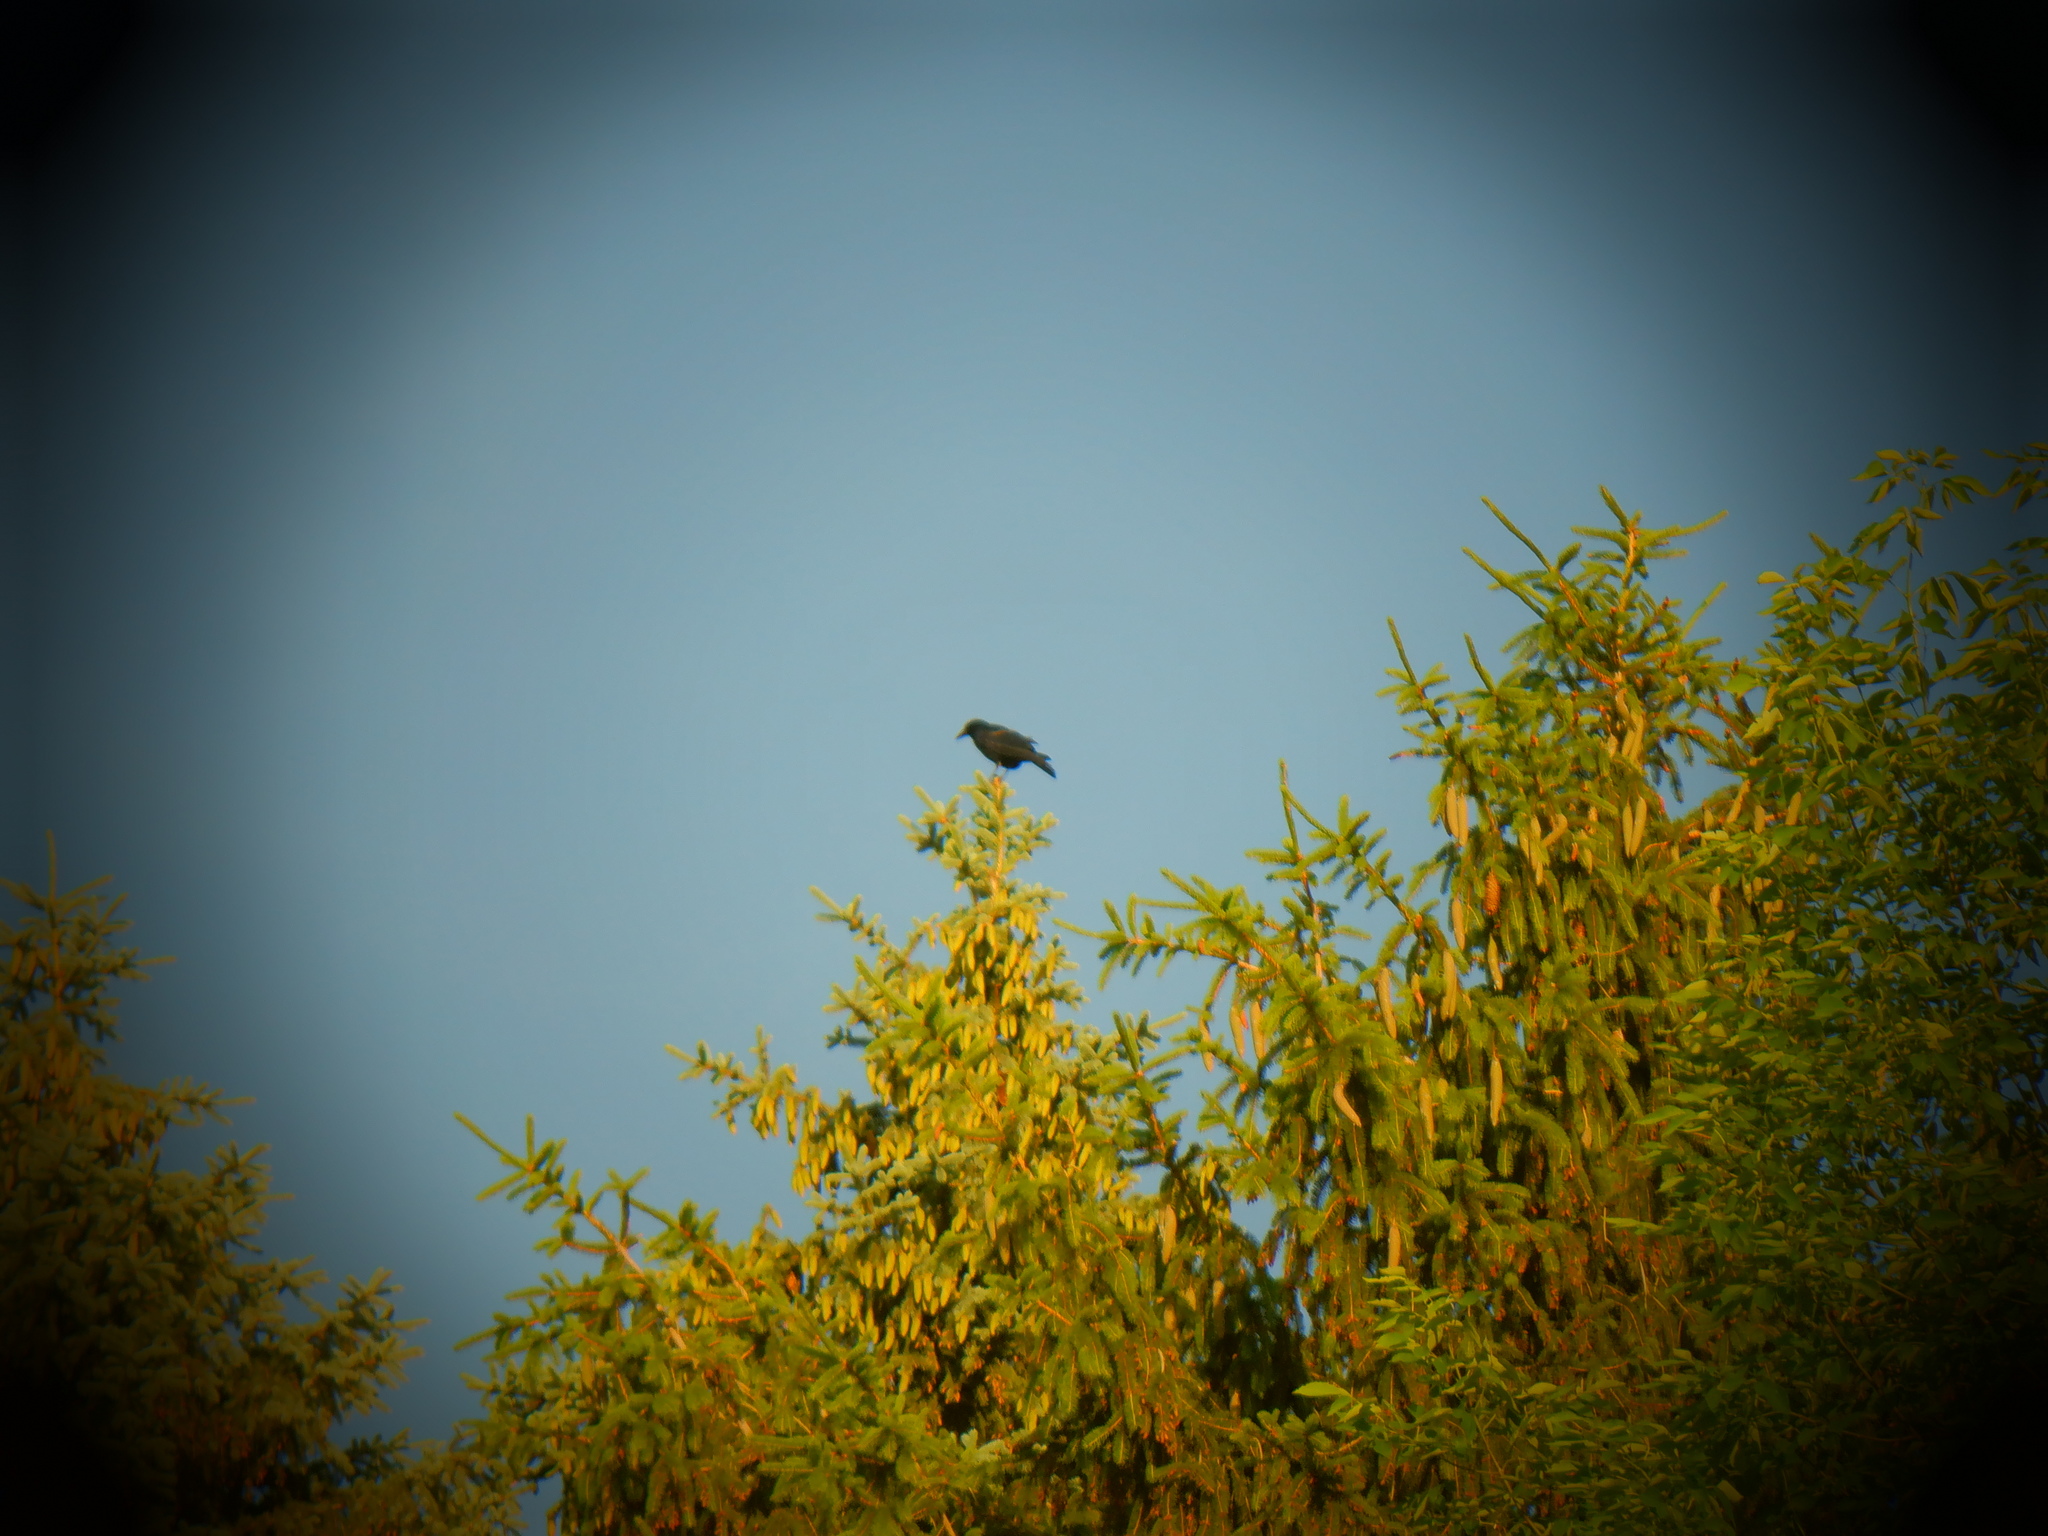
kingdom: Animalia
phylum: Chordata
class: Aves
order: Passeriformes
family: Corvidae
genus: Corvus
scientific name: Corvus brachyrhynchos
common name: American crow
